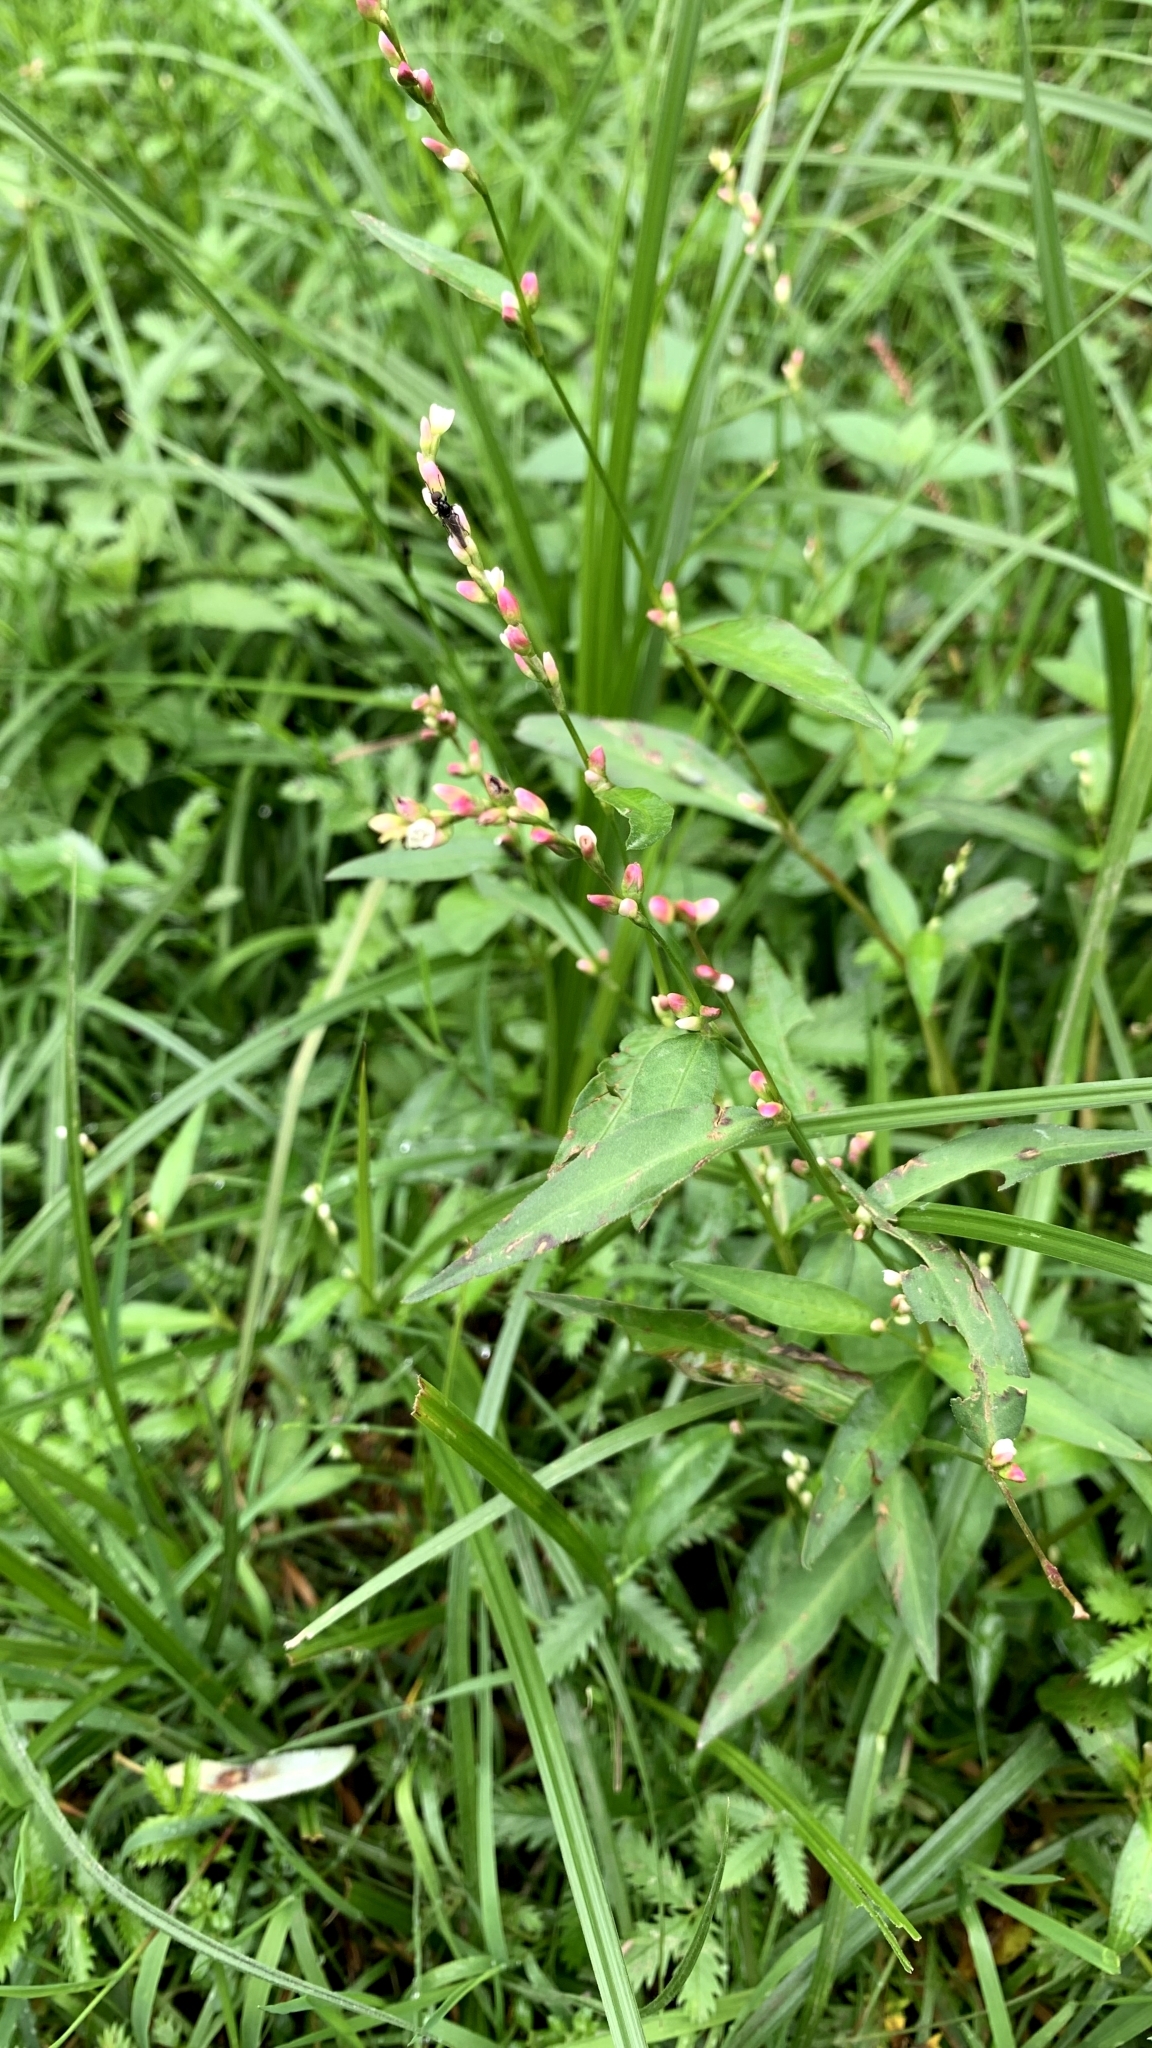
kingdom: Plantae
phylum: Tracheophyta
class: Magnoliopsida
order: Caryophyllales
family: Polygonaceae
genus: Persicaria
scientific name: Persicaria hydropiper
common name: Water-pepper
